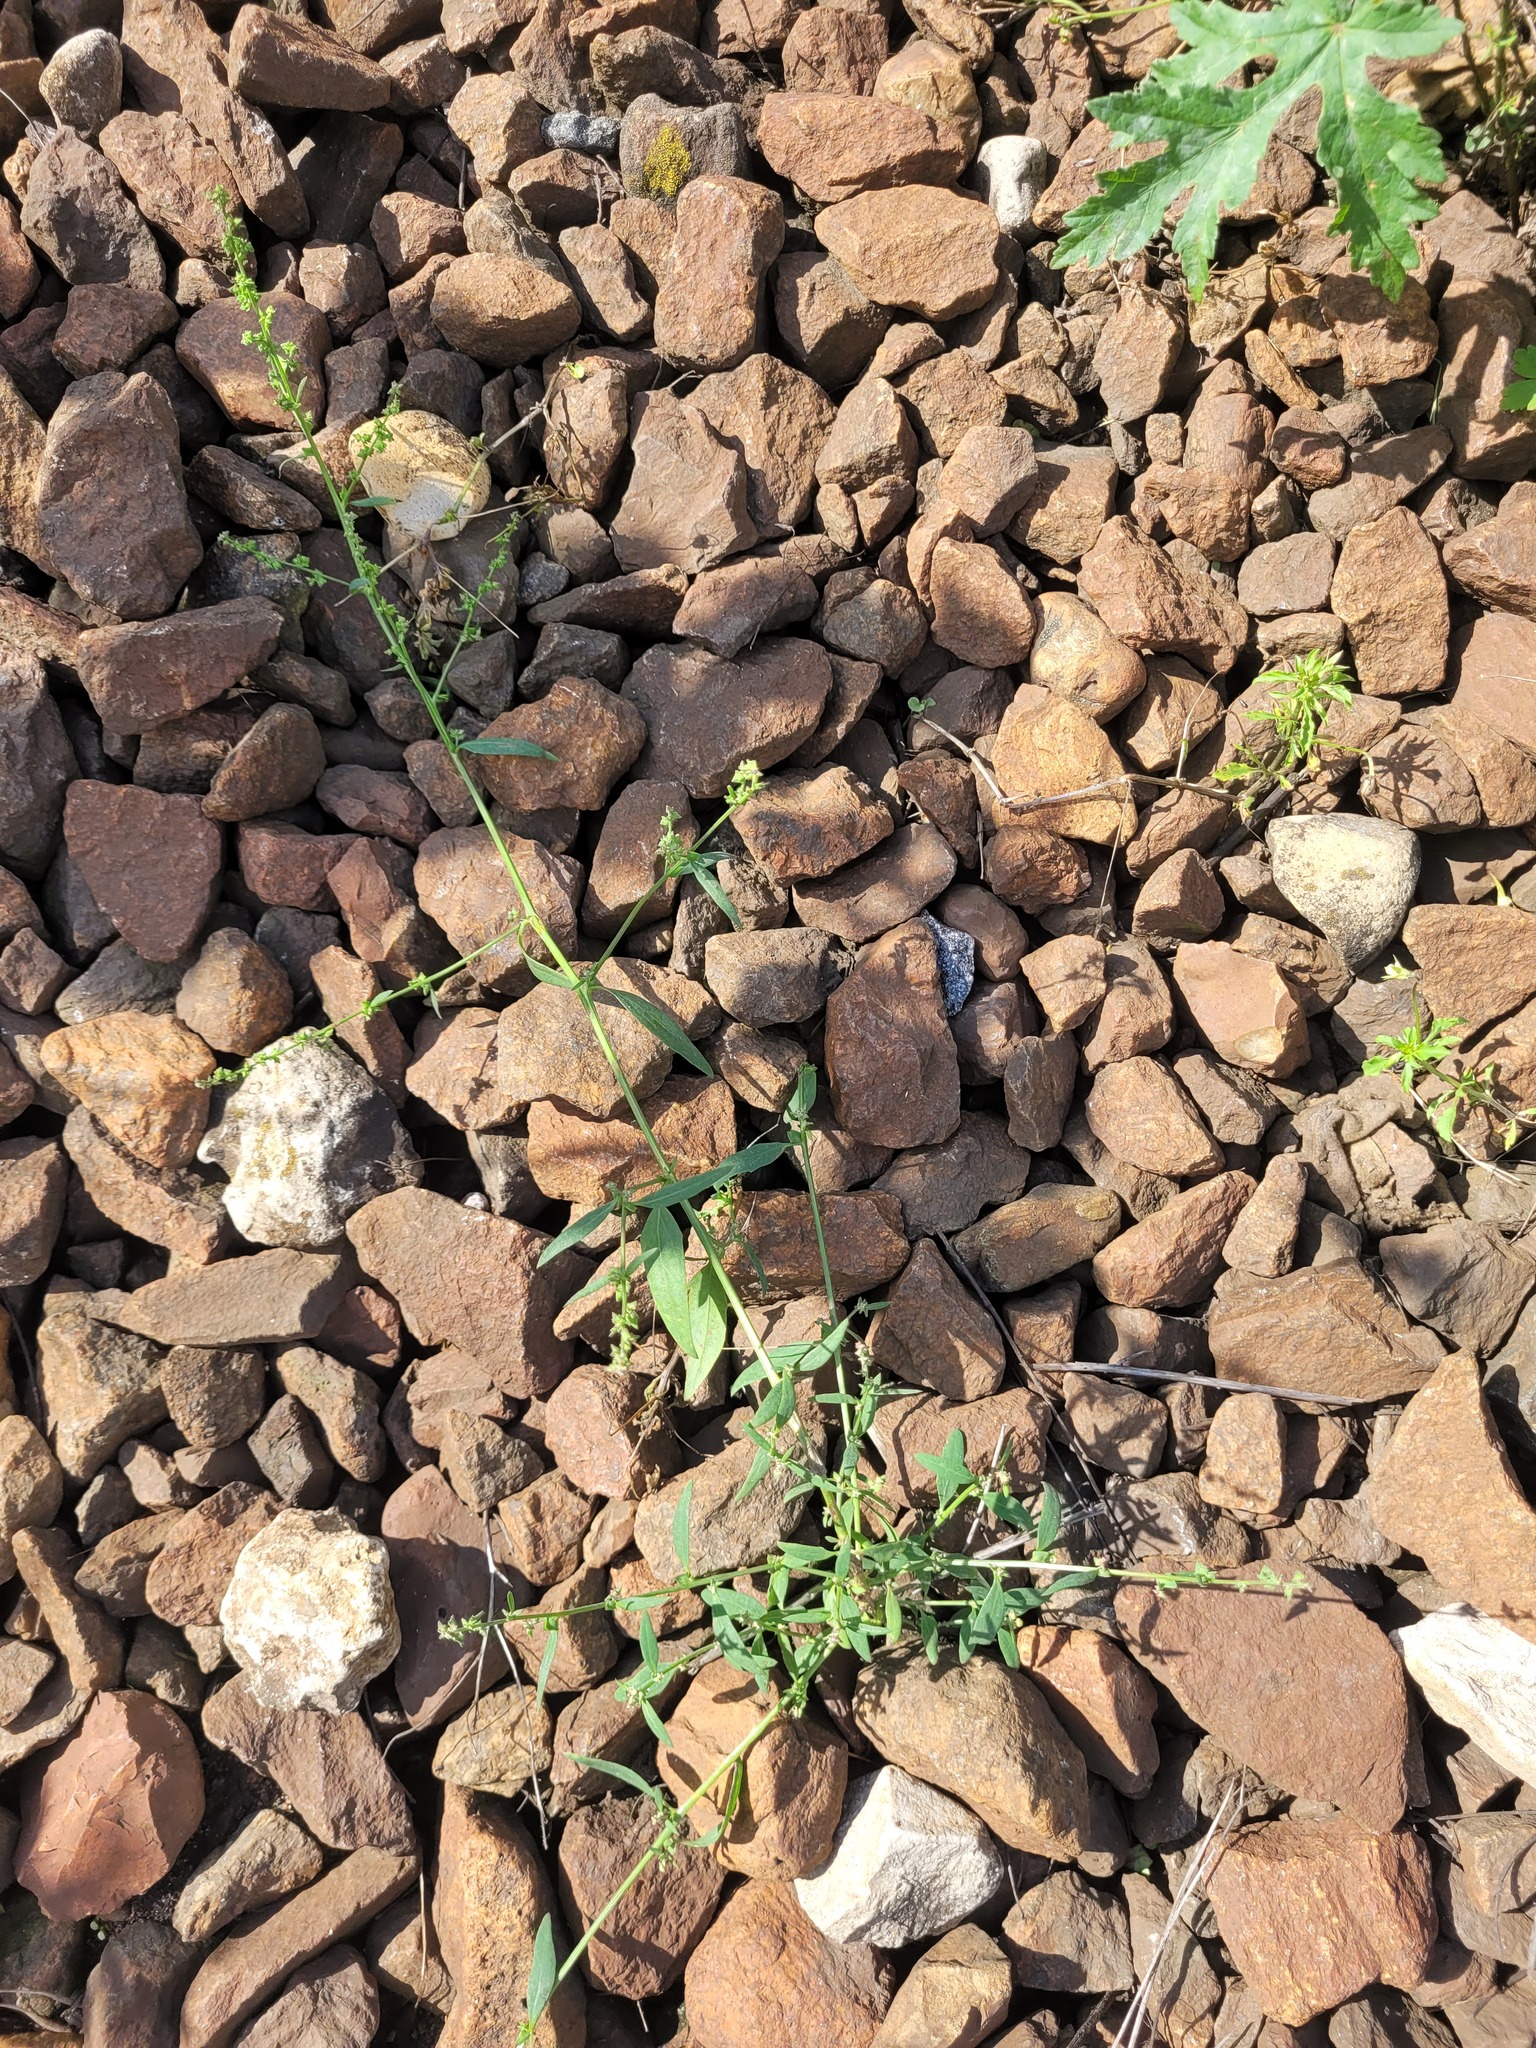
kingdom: Plantae
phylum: Tracheophyta
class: Magnoliopsida
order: Caryophyllales
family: Amaranthaceae
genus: Atriplex
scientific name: Atriplex patula
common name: Common orache
